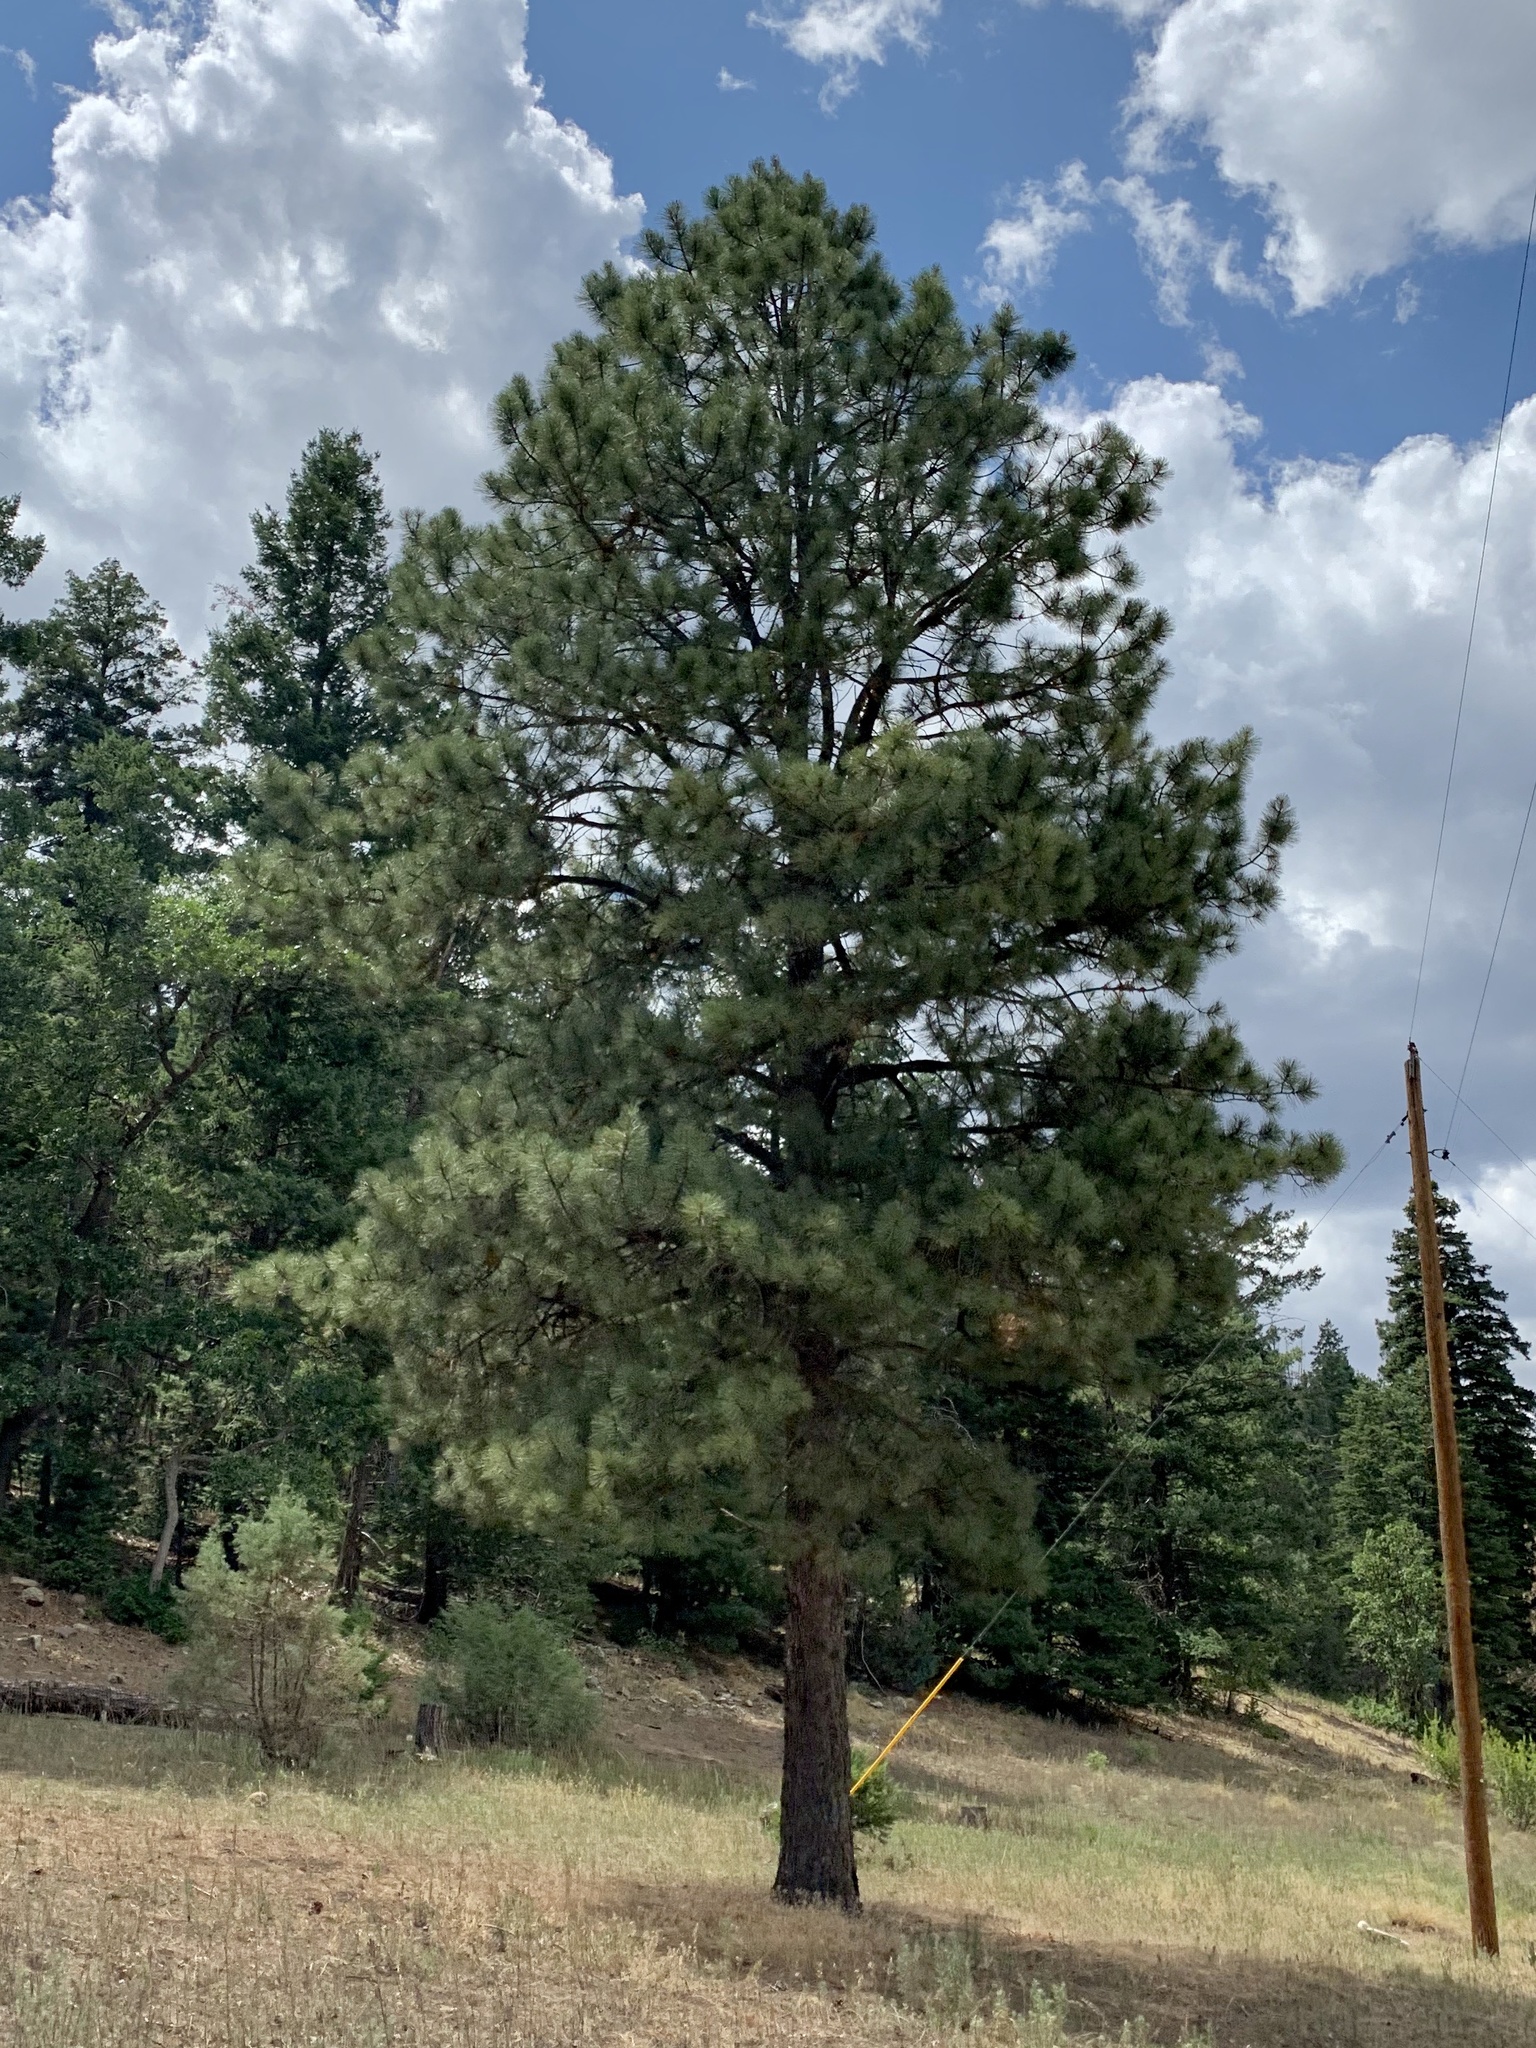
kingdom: Plantae
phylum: Tracheophyta
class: Pinopsida
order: Pinales
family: Pinaceae
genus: Pinus
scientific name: Pinus ponderosa
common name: Western yellow-pine
